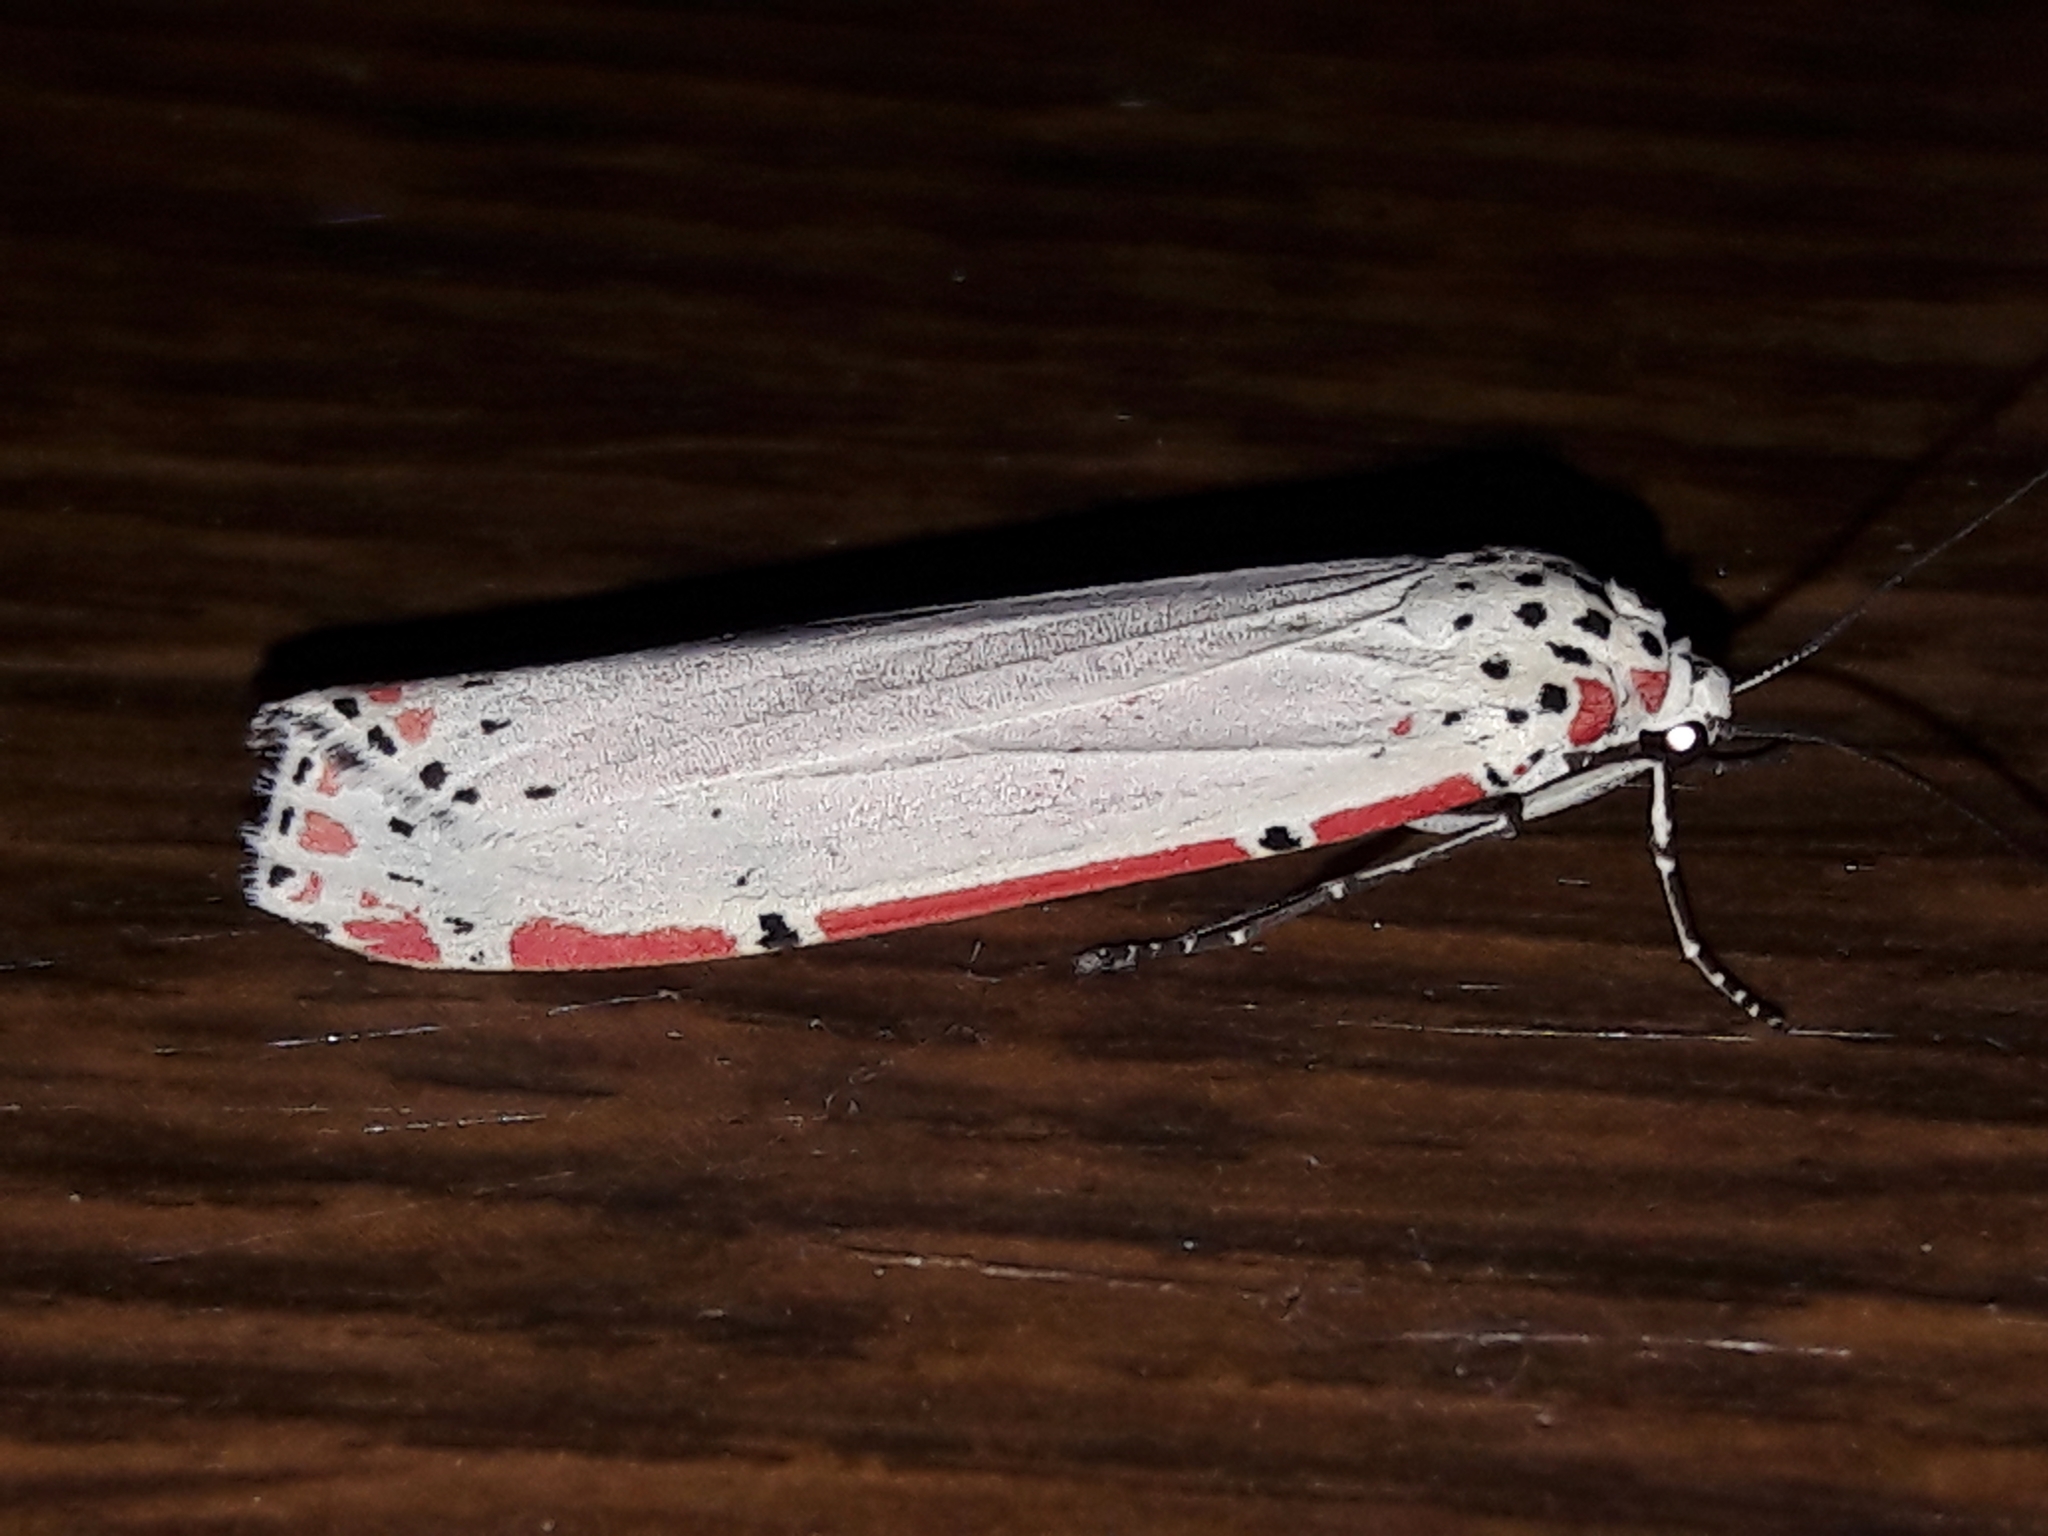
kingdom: Animalia
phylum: Arthropoda
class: Insecta
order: Lepidoptera
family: Erebidae
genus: Utetheisa
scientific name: Utetheisa ornatrix
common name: Beautiful utetheisa
